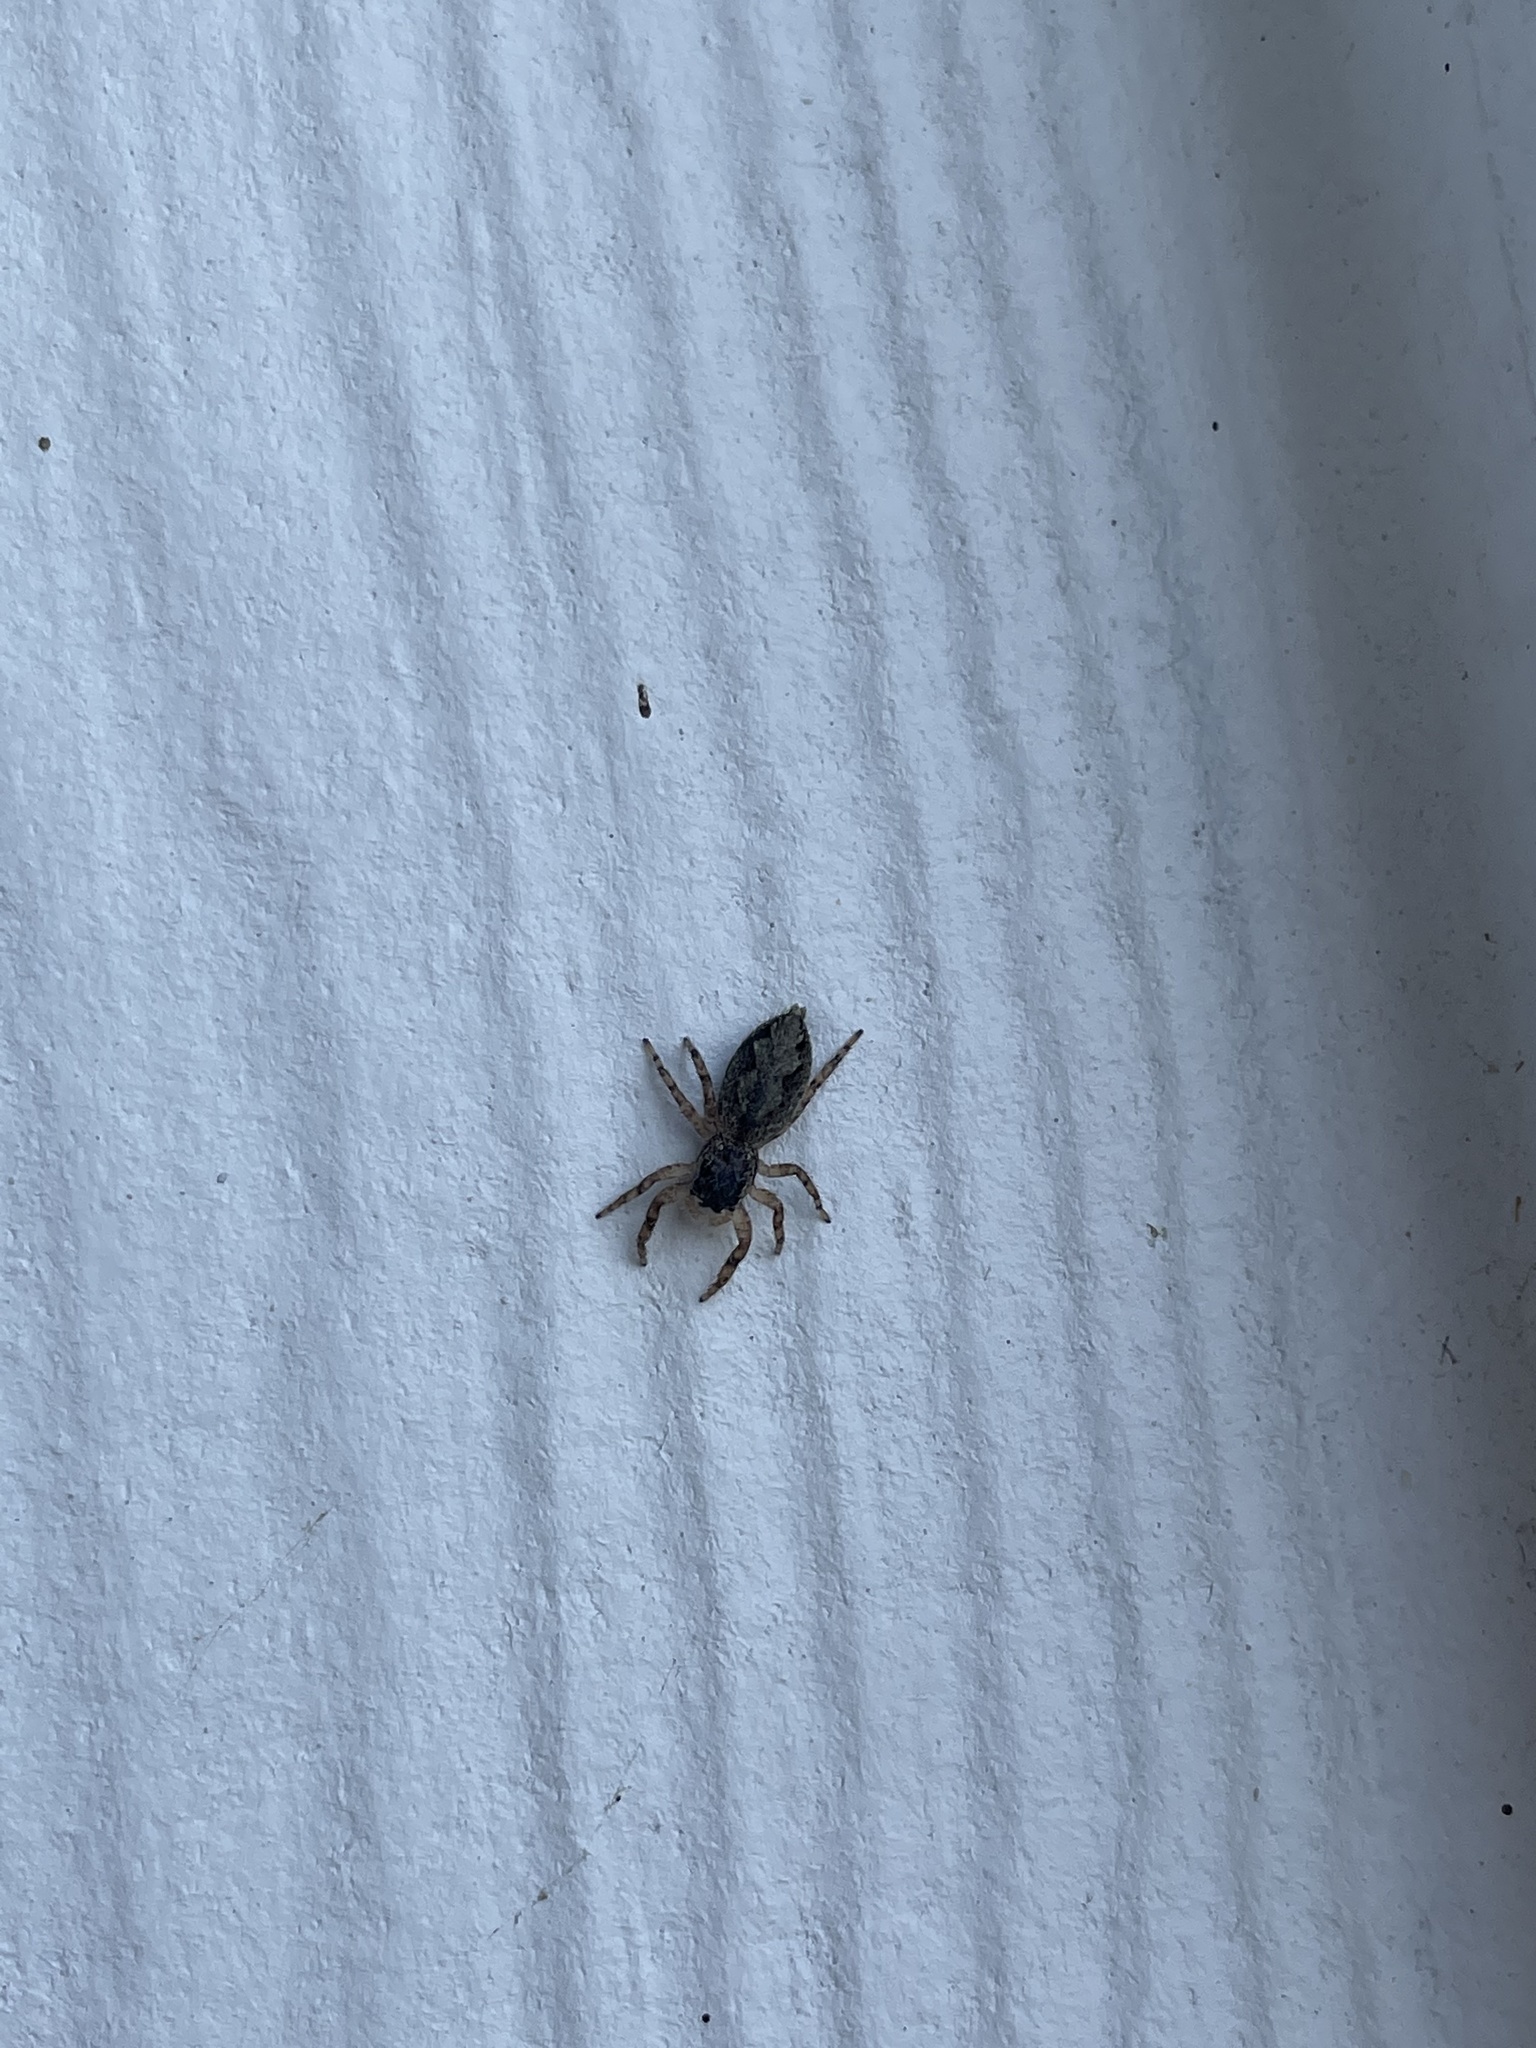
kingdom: Animalia
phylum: Arthropoda
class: Arachnida
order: Araneae
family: Salticidae
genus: Platycryptus
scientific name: Platycryptus undatus
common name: Tan jumping spider
